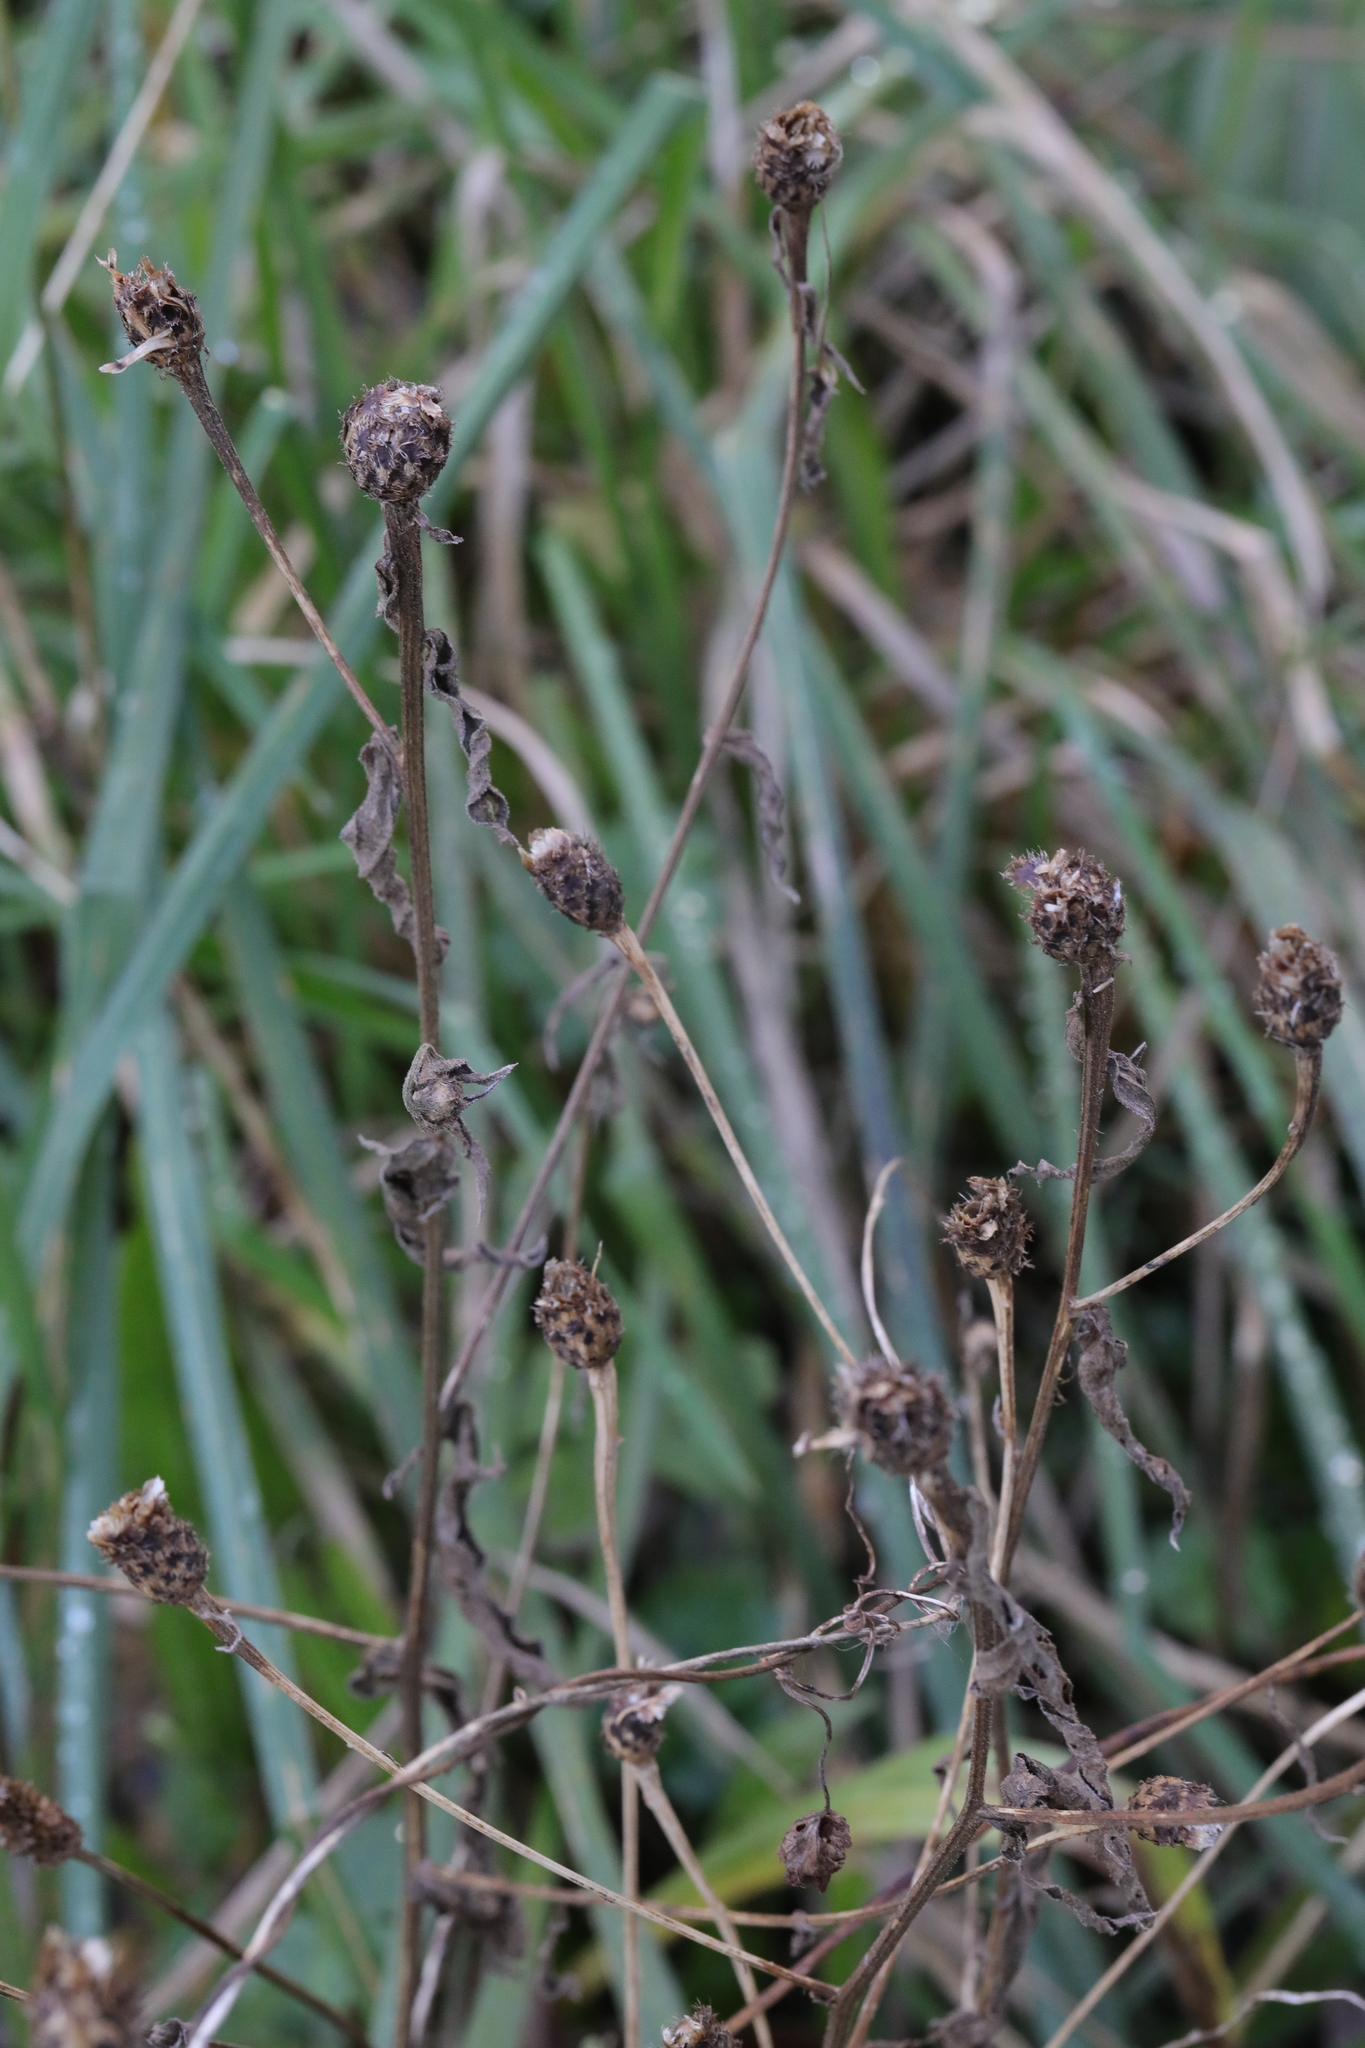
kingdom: Plantae
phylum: Tracheophyta
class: Magnoliopsida
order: Asterales
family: Asteraceae
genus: Centaurea
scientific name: Centaurea nigra
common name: Lesser knapweed
